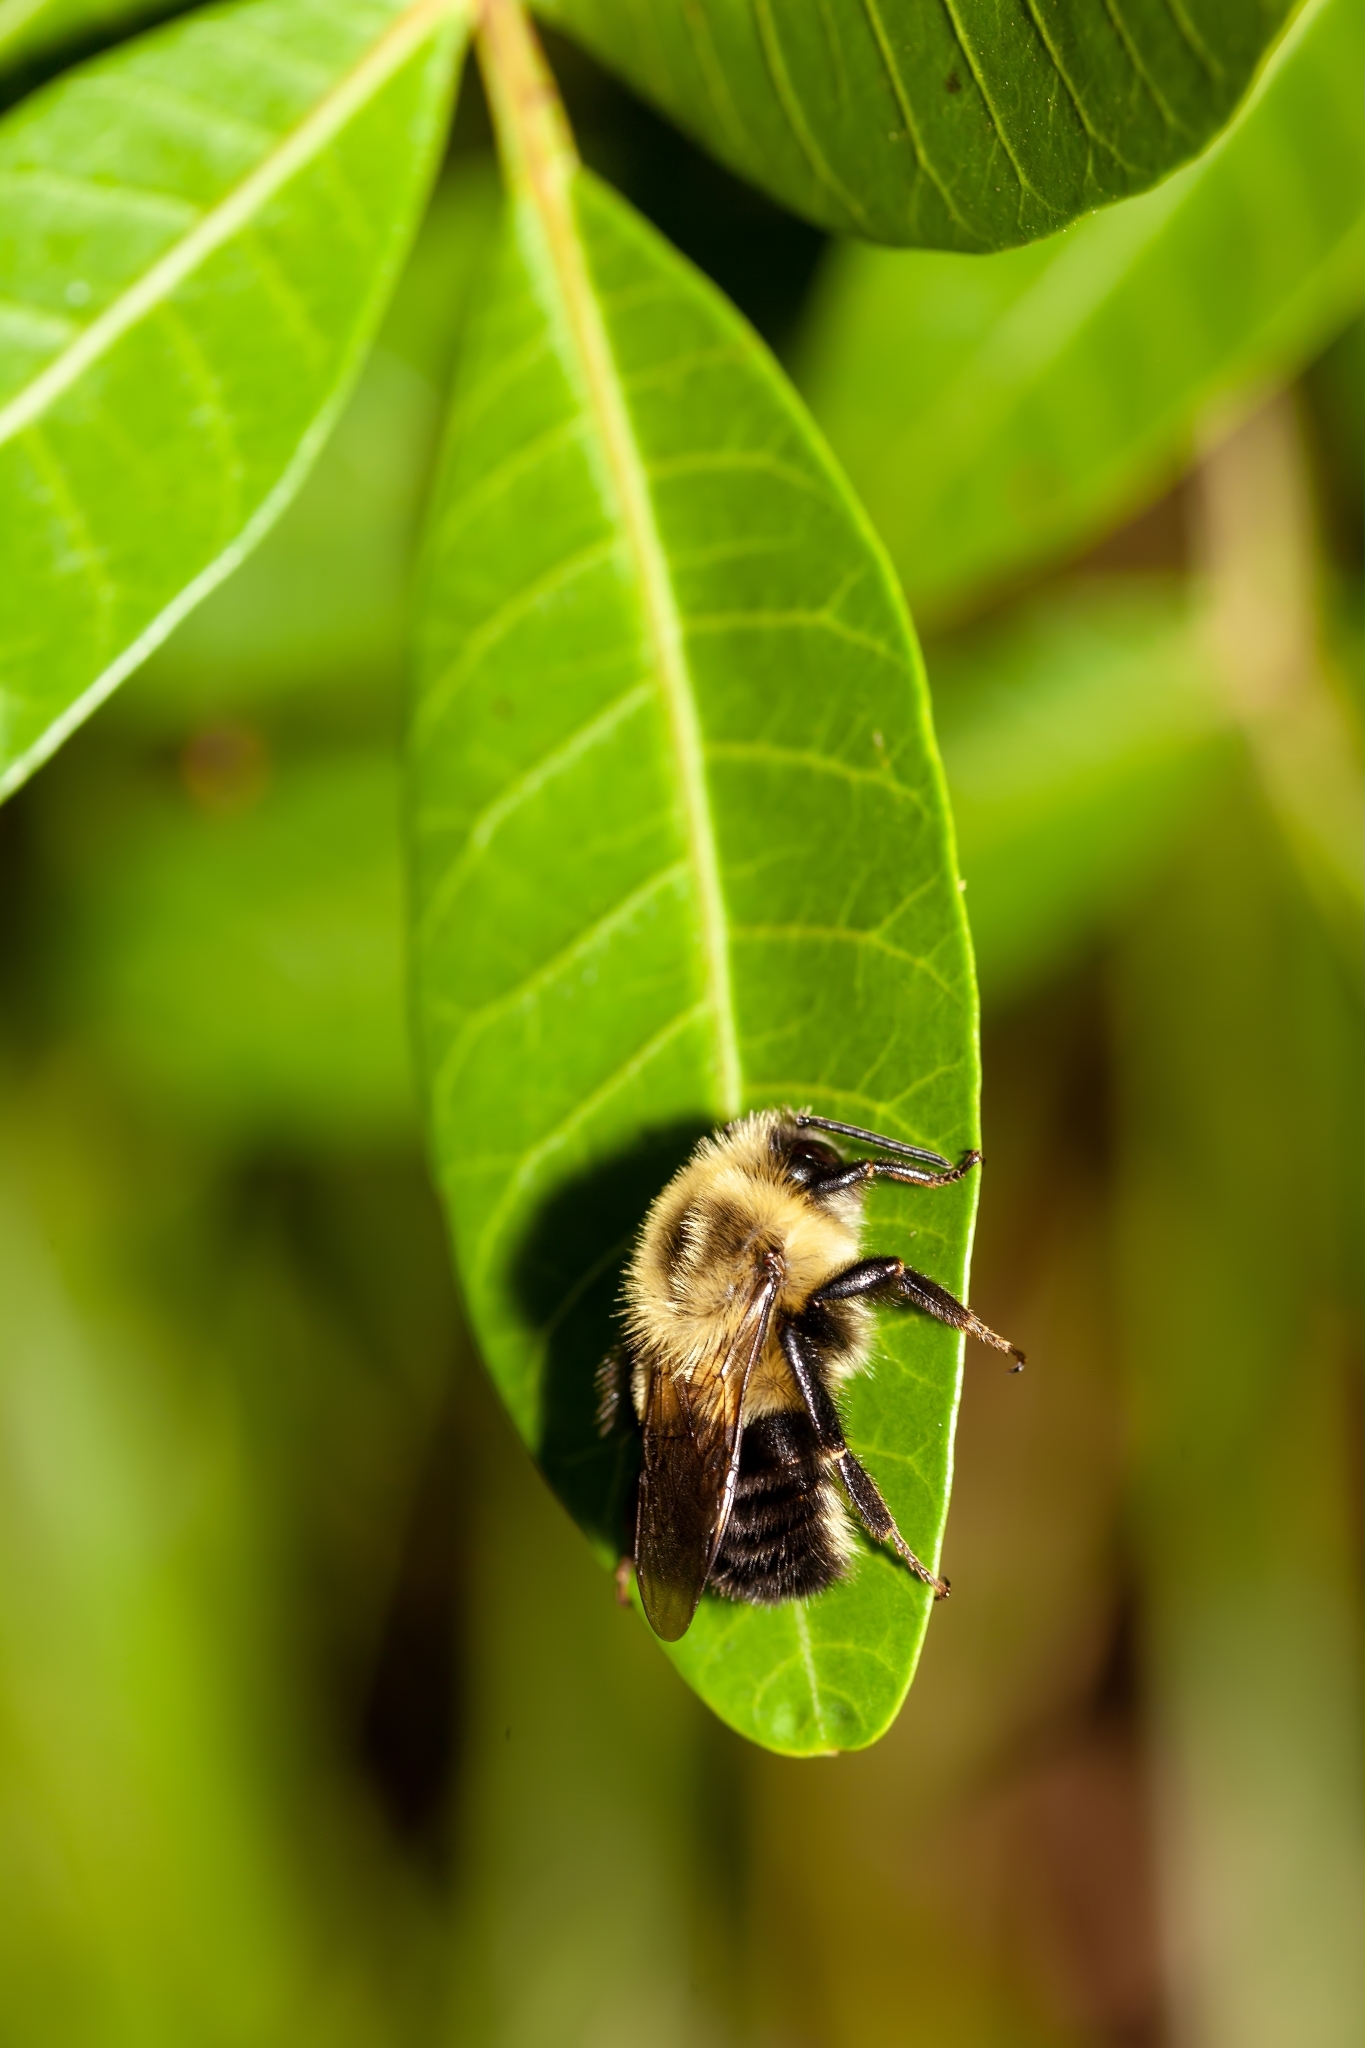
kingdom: Animalia
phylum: Arthropoda
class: Insecta
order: Hymenoptera
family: Apidae
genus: Bombus
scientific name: Bombus impatiens
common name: Common eastern bumble bee
